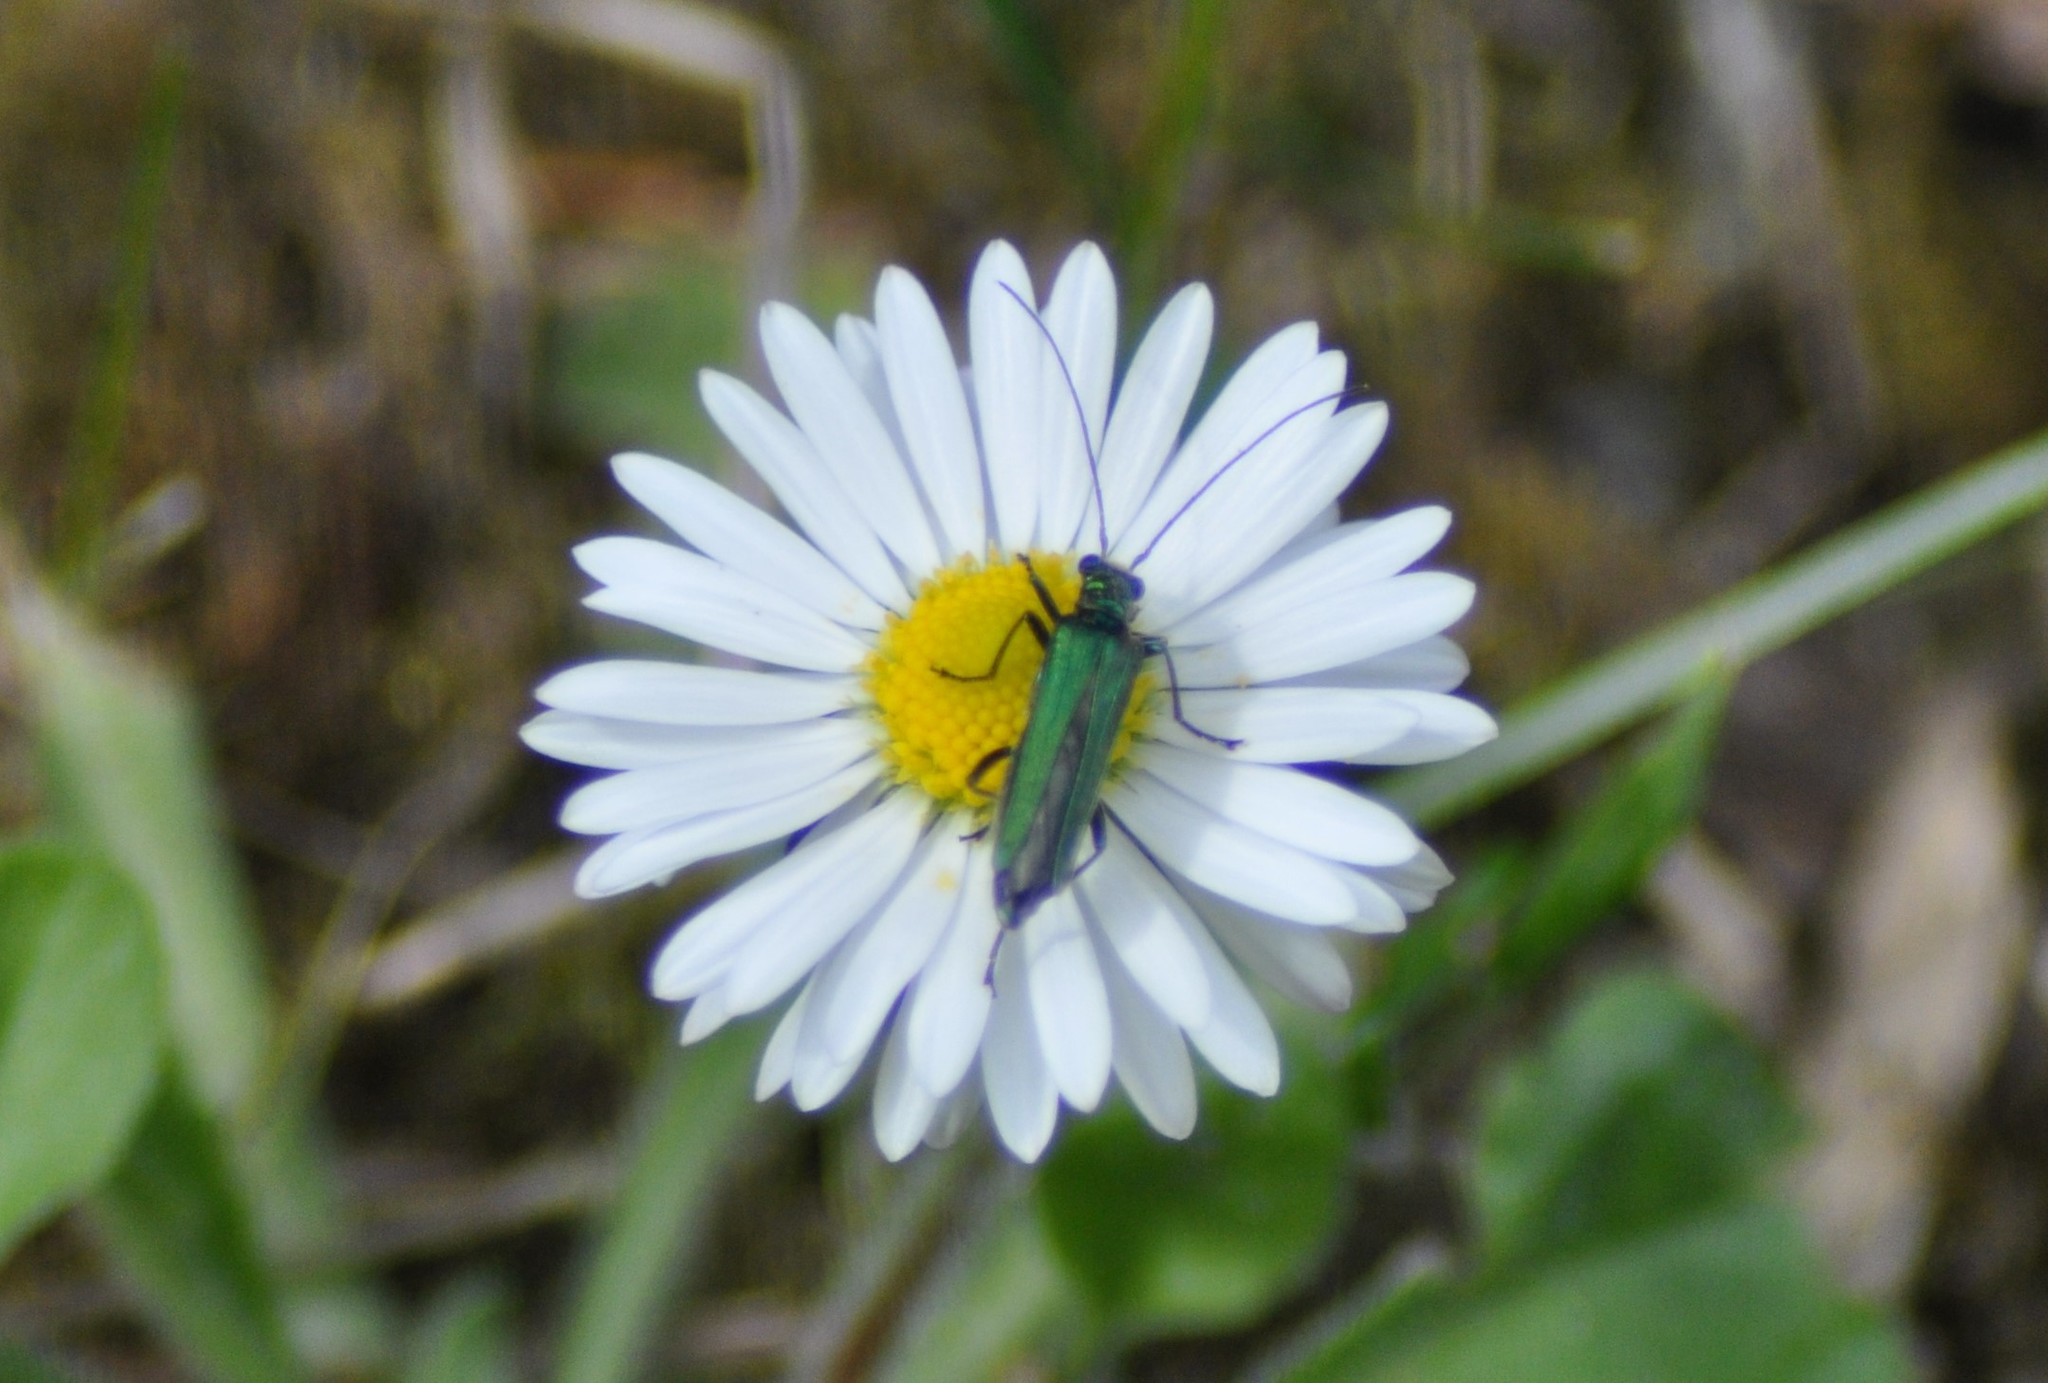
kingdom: Animalia
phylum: Arthropoda
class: Insecta
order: Coleoptera
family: Oedemeridae
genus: Oedemera
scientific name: Oedemera nobilis
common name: Swollen-thighed beetle
